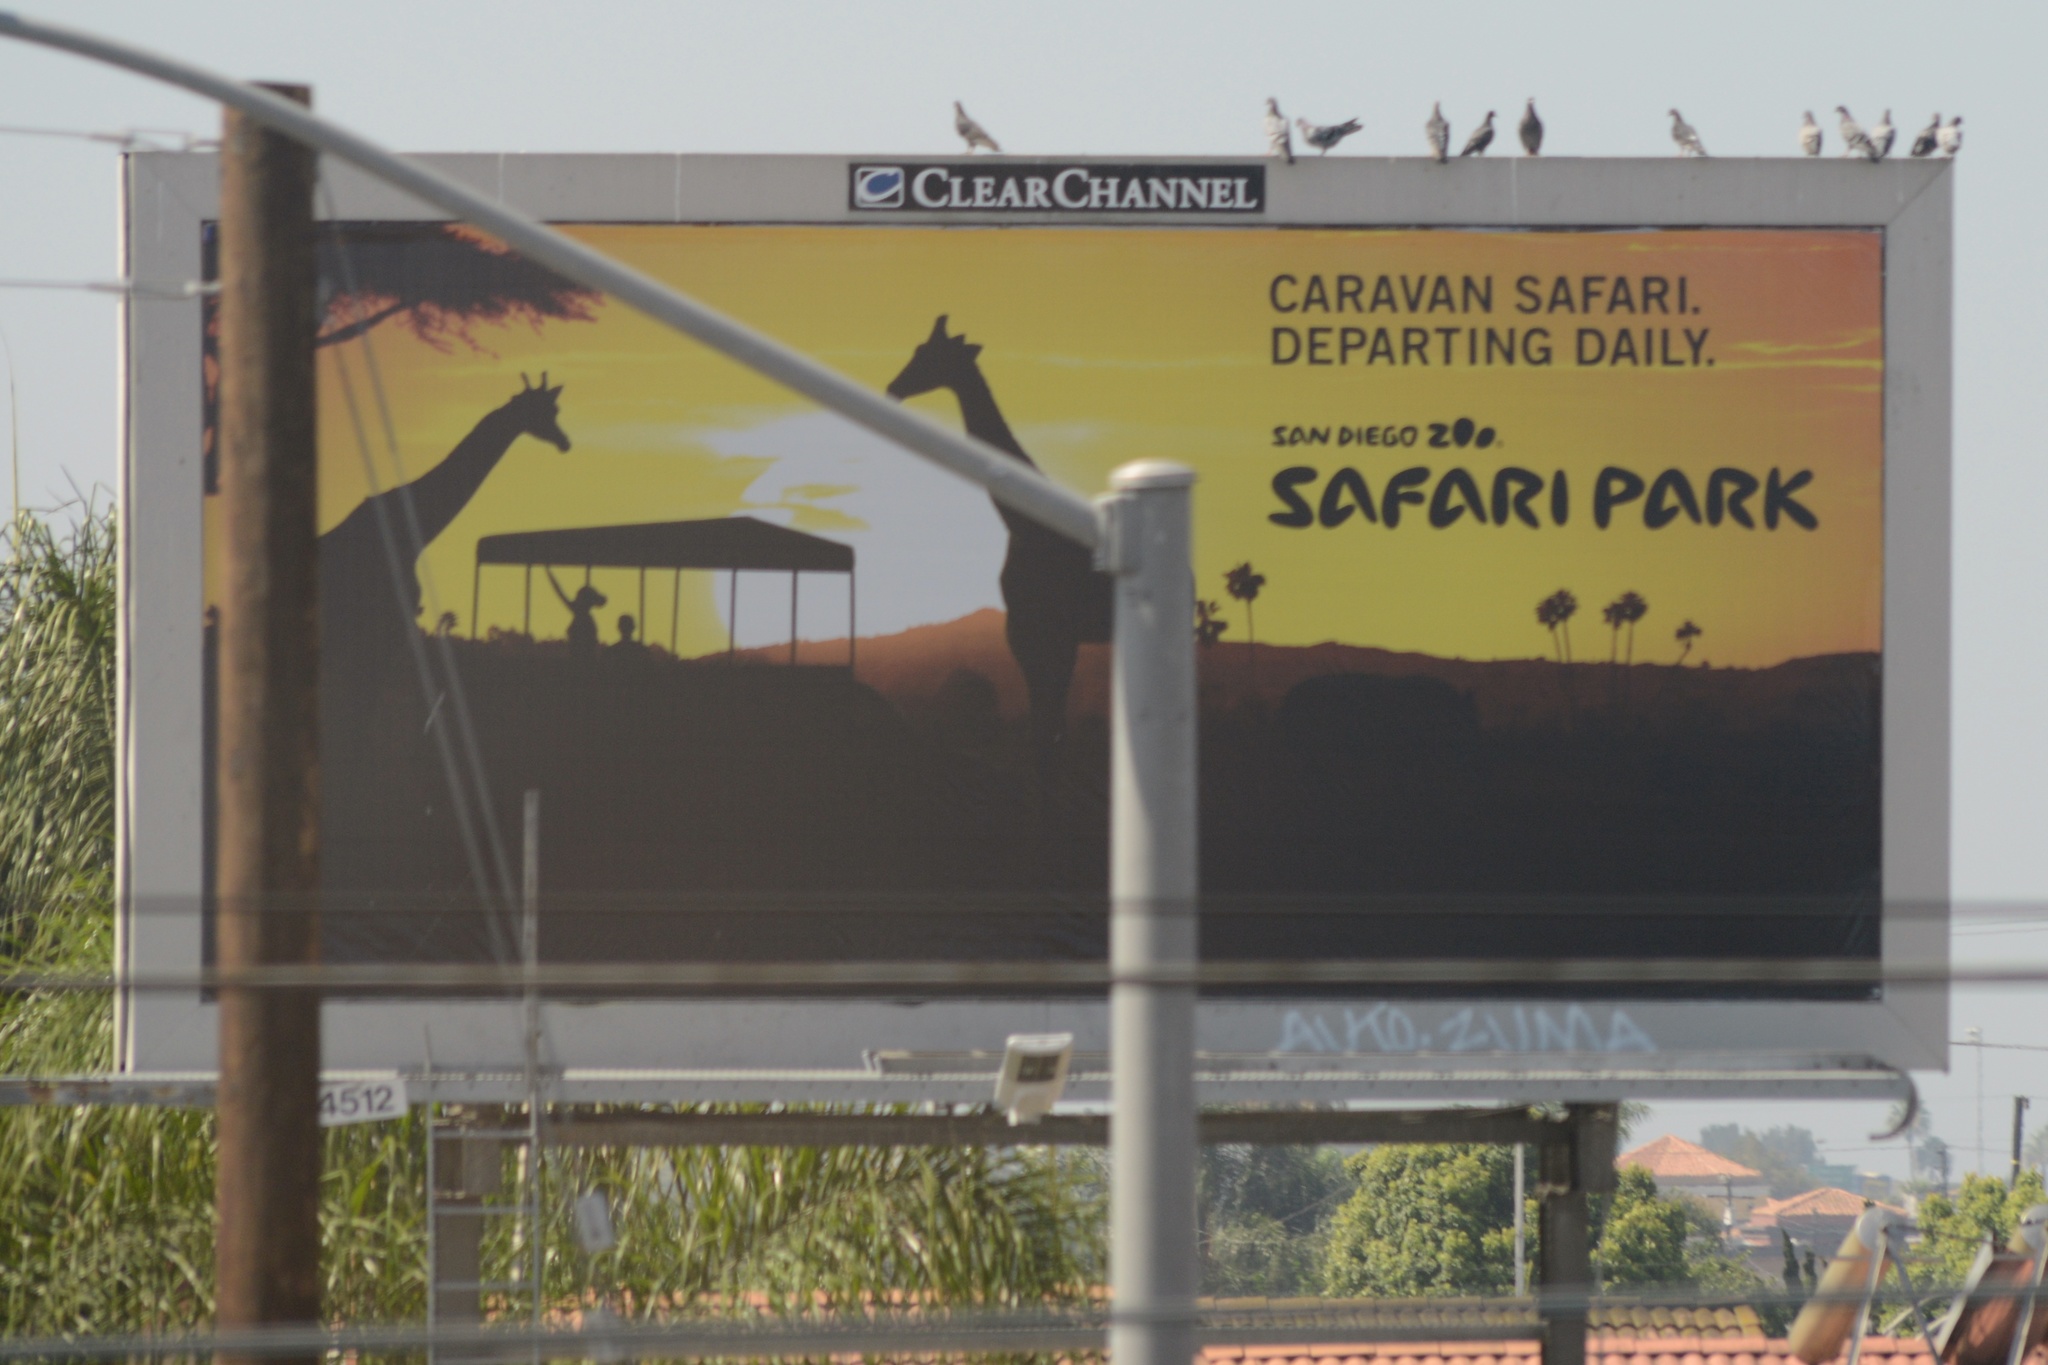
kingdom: Animalia
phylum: Chordata
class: Aves
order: Columbiformes
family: Columbidae
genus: Columba
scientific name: Columba livia
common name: Rock pigeon
